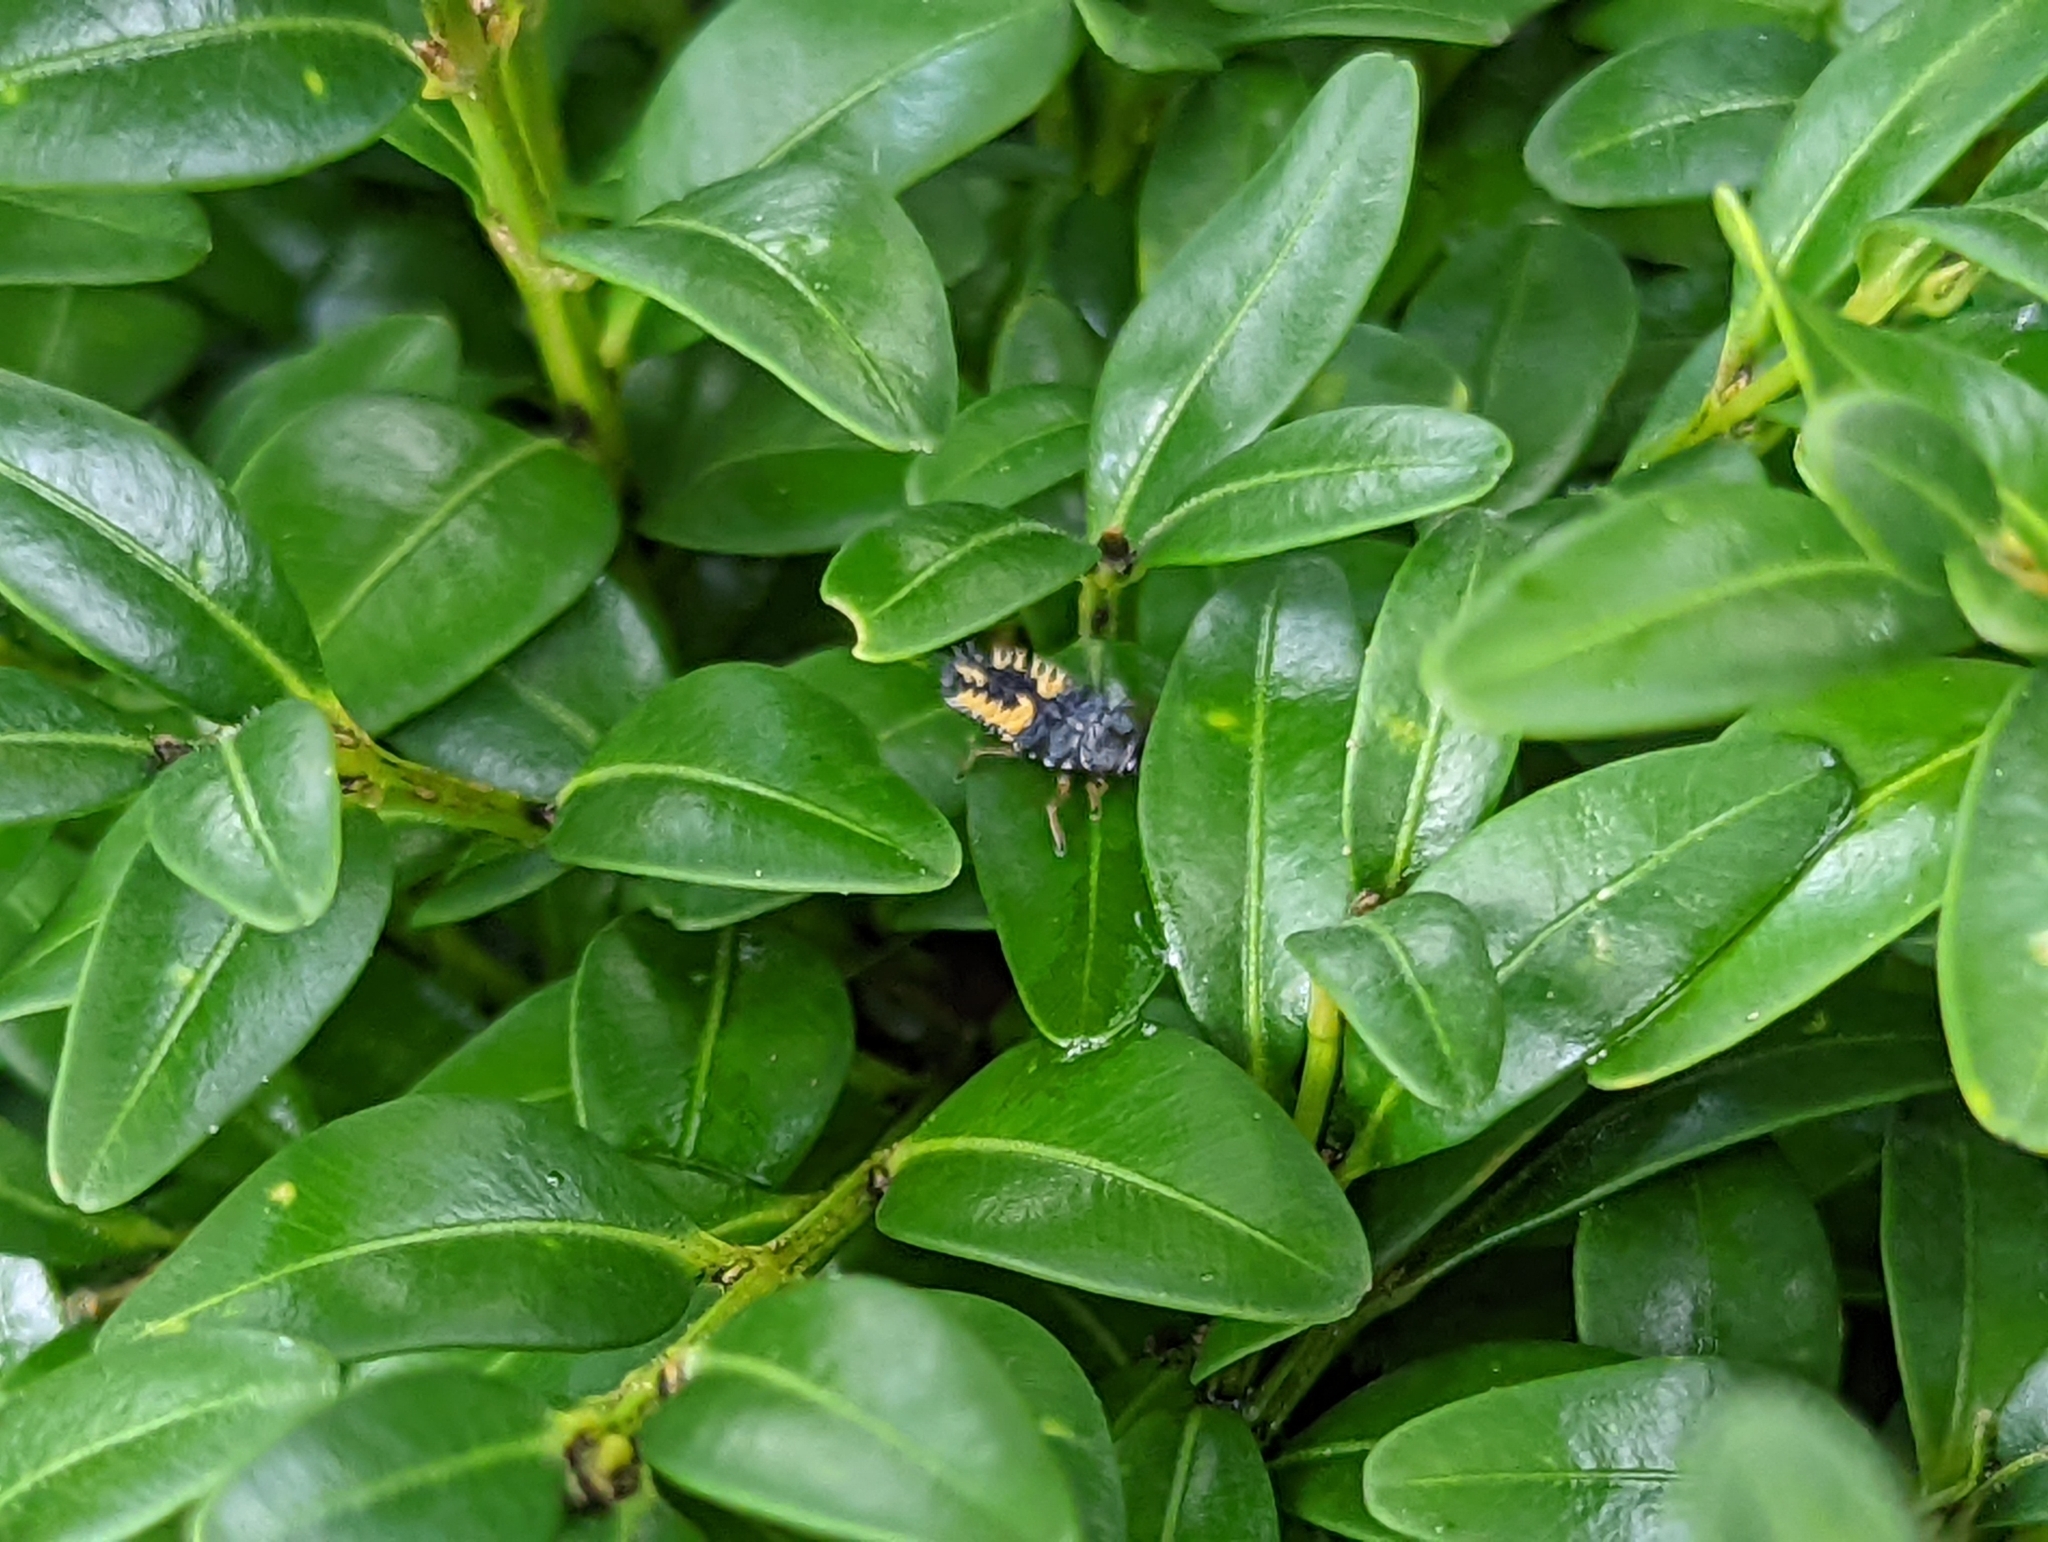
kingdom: Animalia
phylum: Arthropoda
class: Insecta
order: Coleoptera
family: Coccinellidae
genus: Harmonia
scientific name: Harmonia axyridis
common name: Harlequin ladybird
